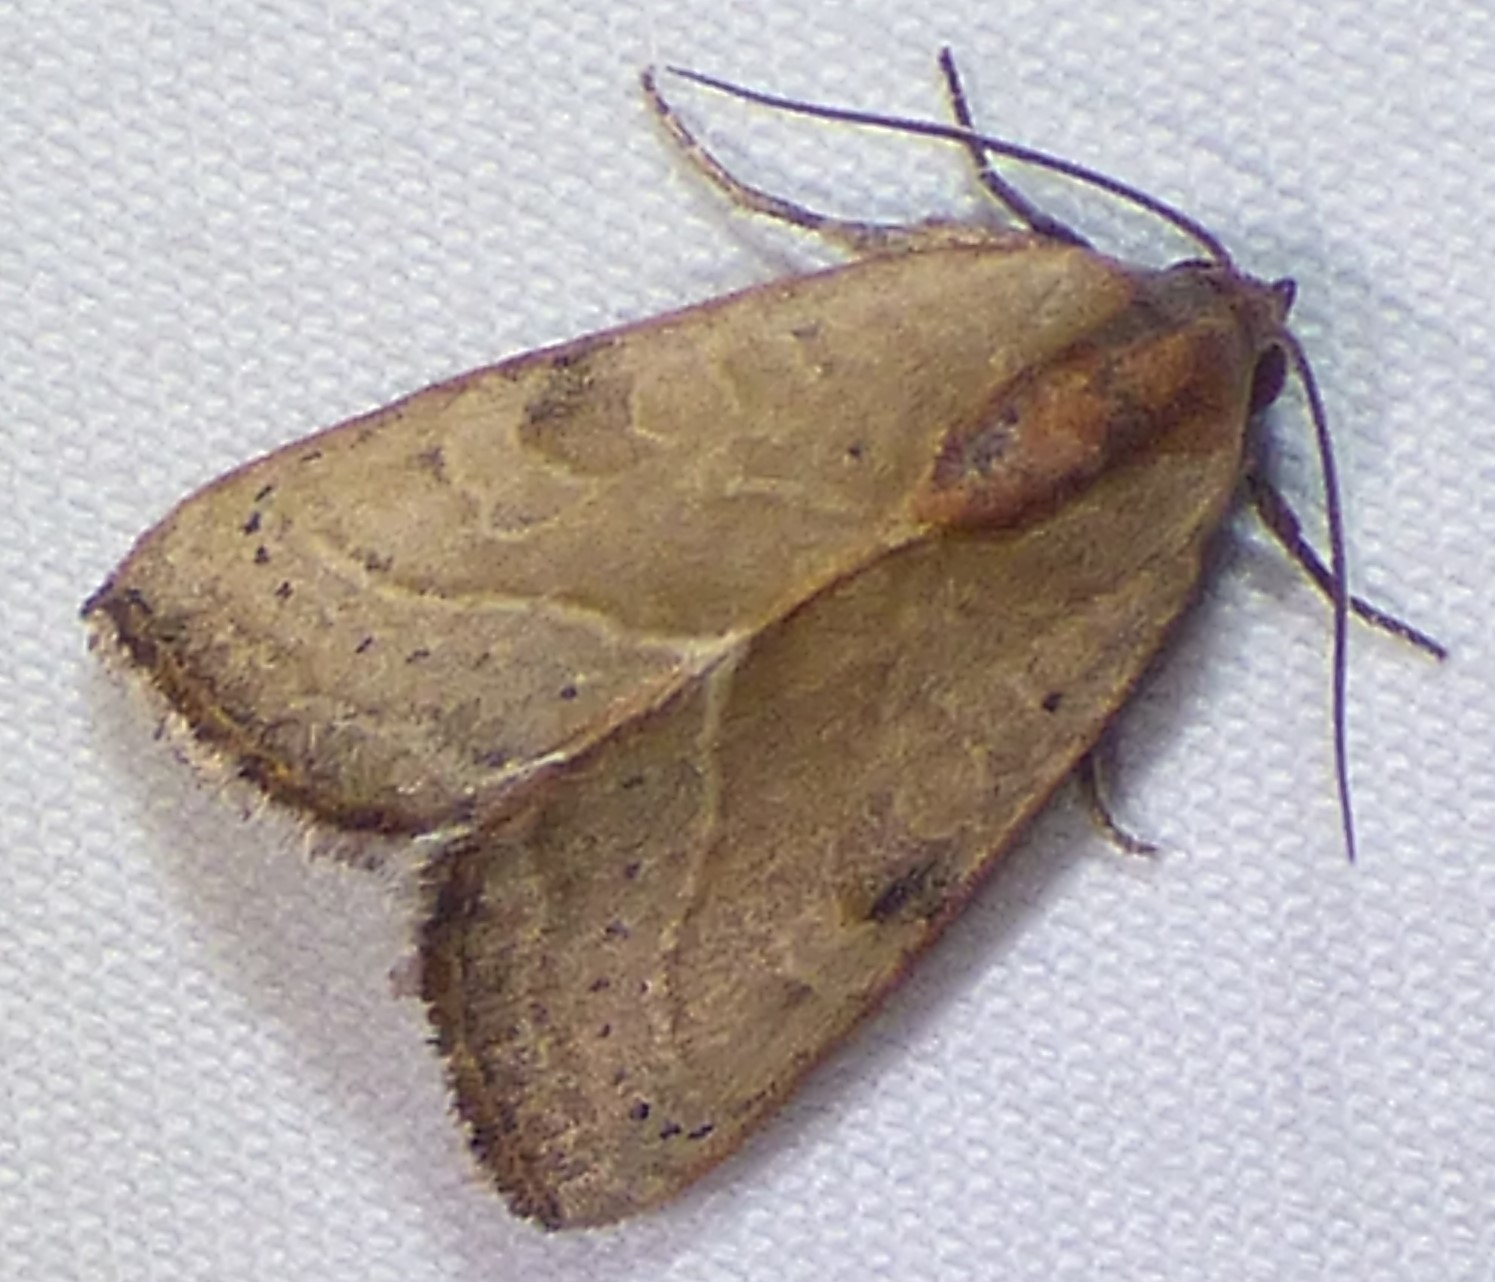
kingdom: Animalia
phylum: Arthropoda
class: Insecta
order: Lepidoptera
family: Noctuidae
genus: Galgula
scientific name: Galgula partita
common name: Wedgeling
